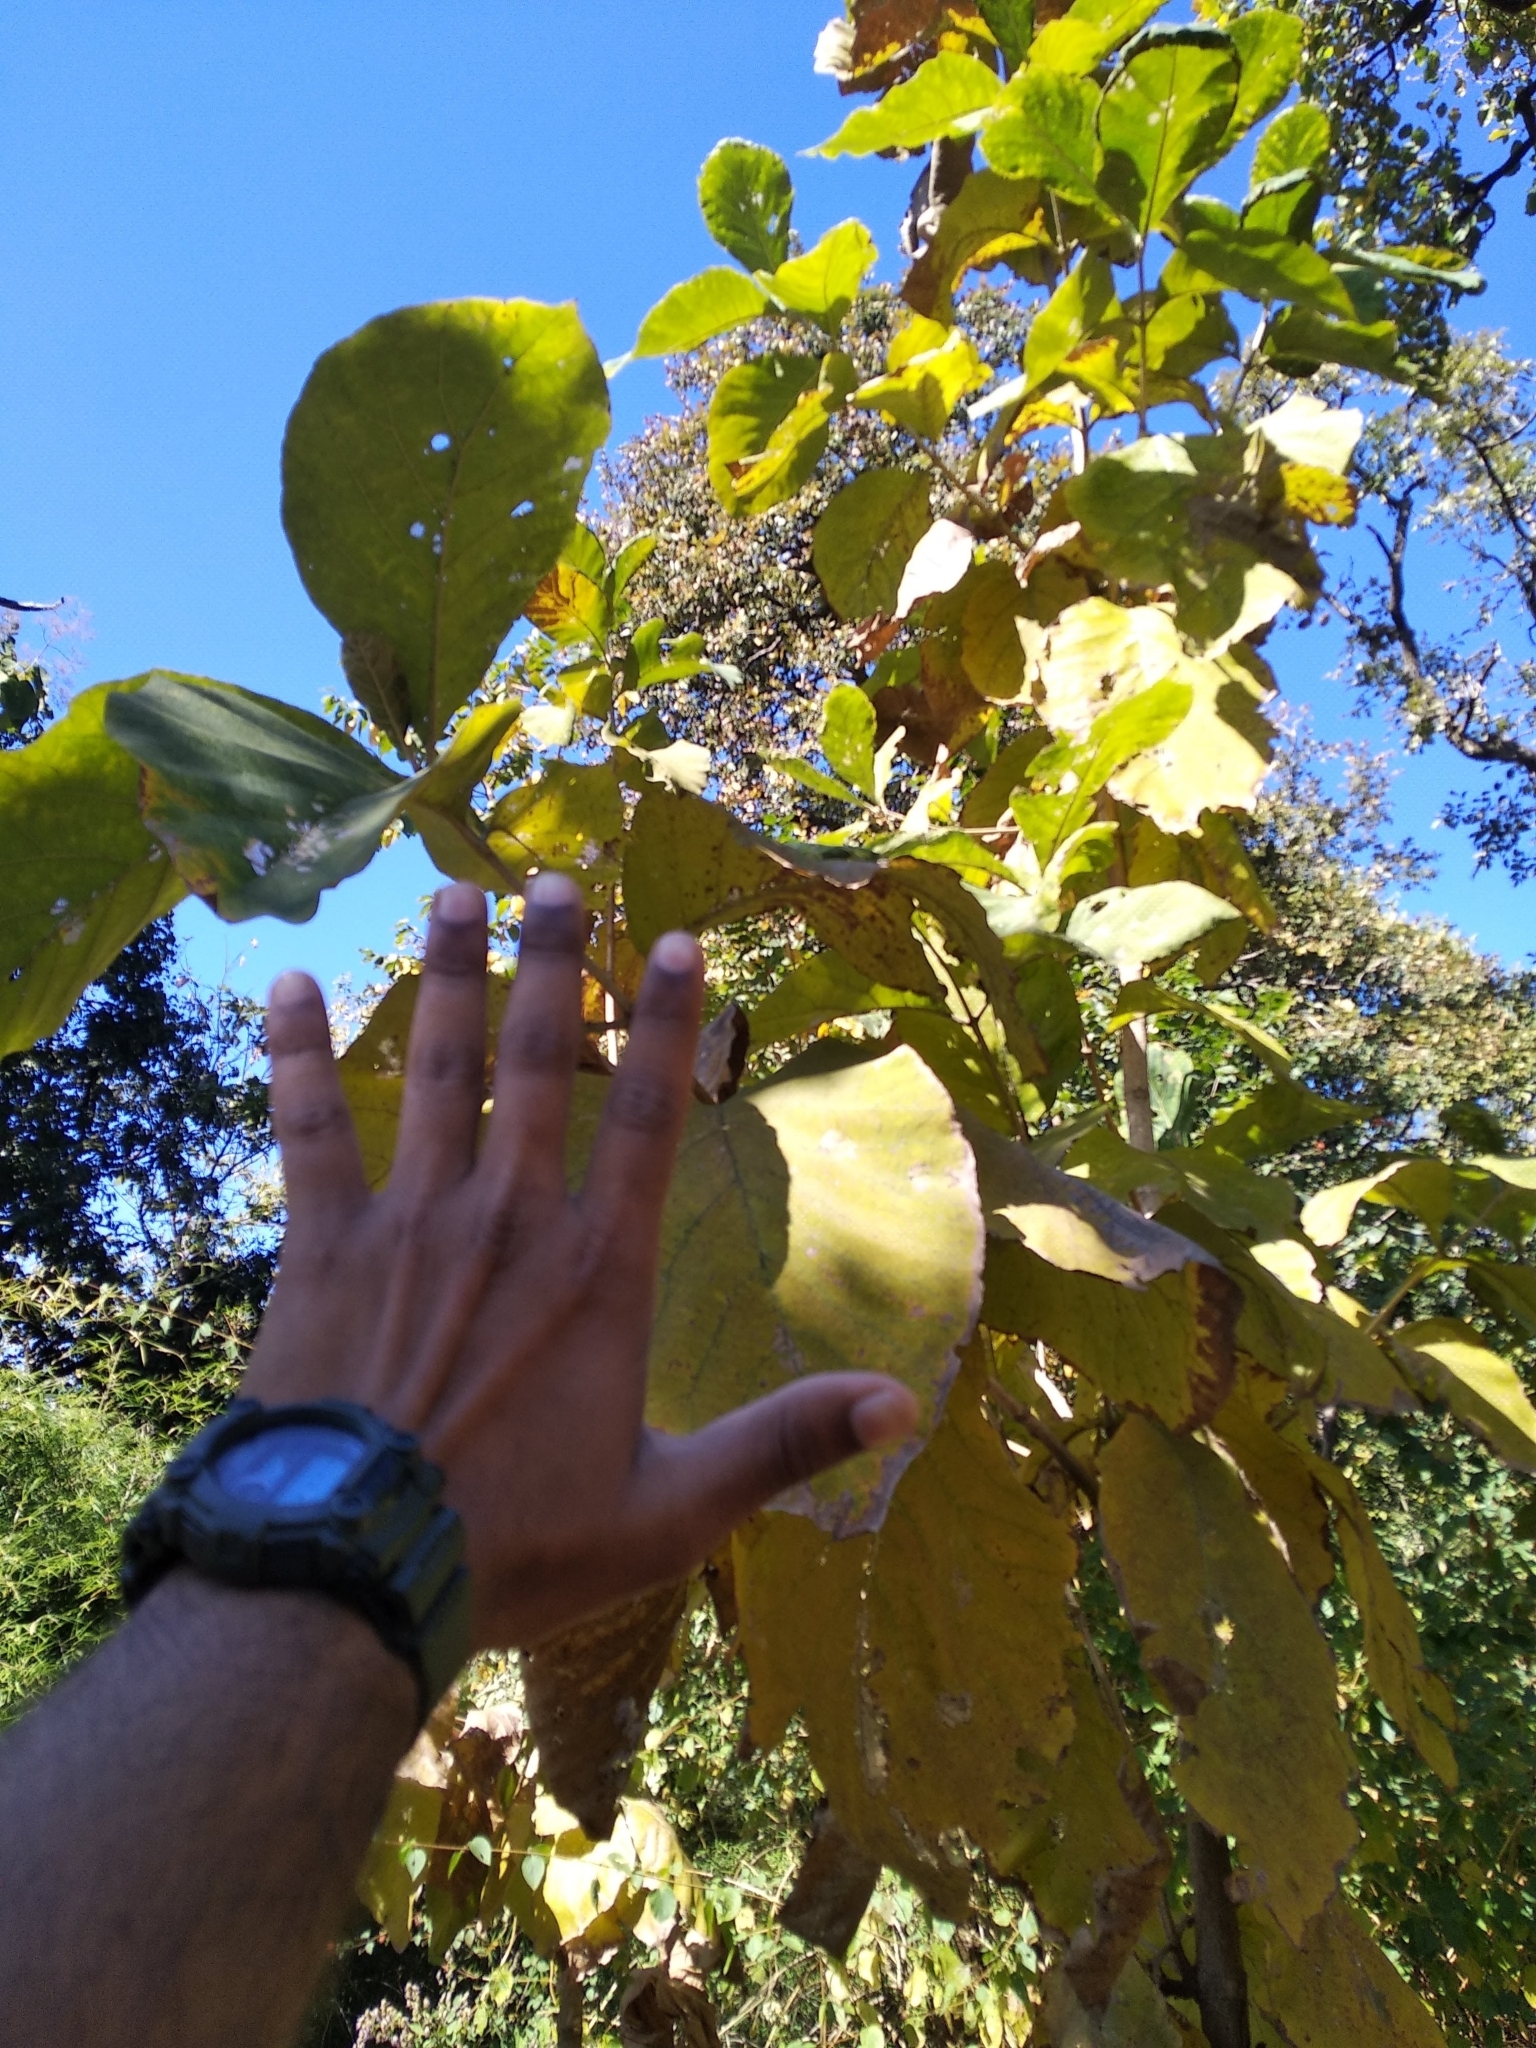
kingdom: Plantae
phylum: Tracheophyta
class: Magnoliopsida
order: Lamiales
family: Lamiaceae
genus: Tectona
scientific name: Tectona grandis
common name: Teak
